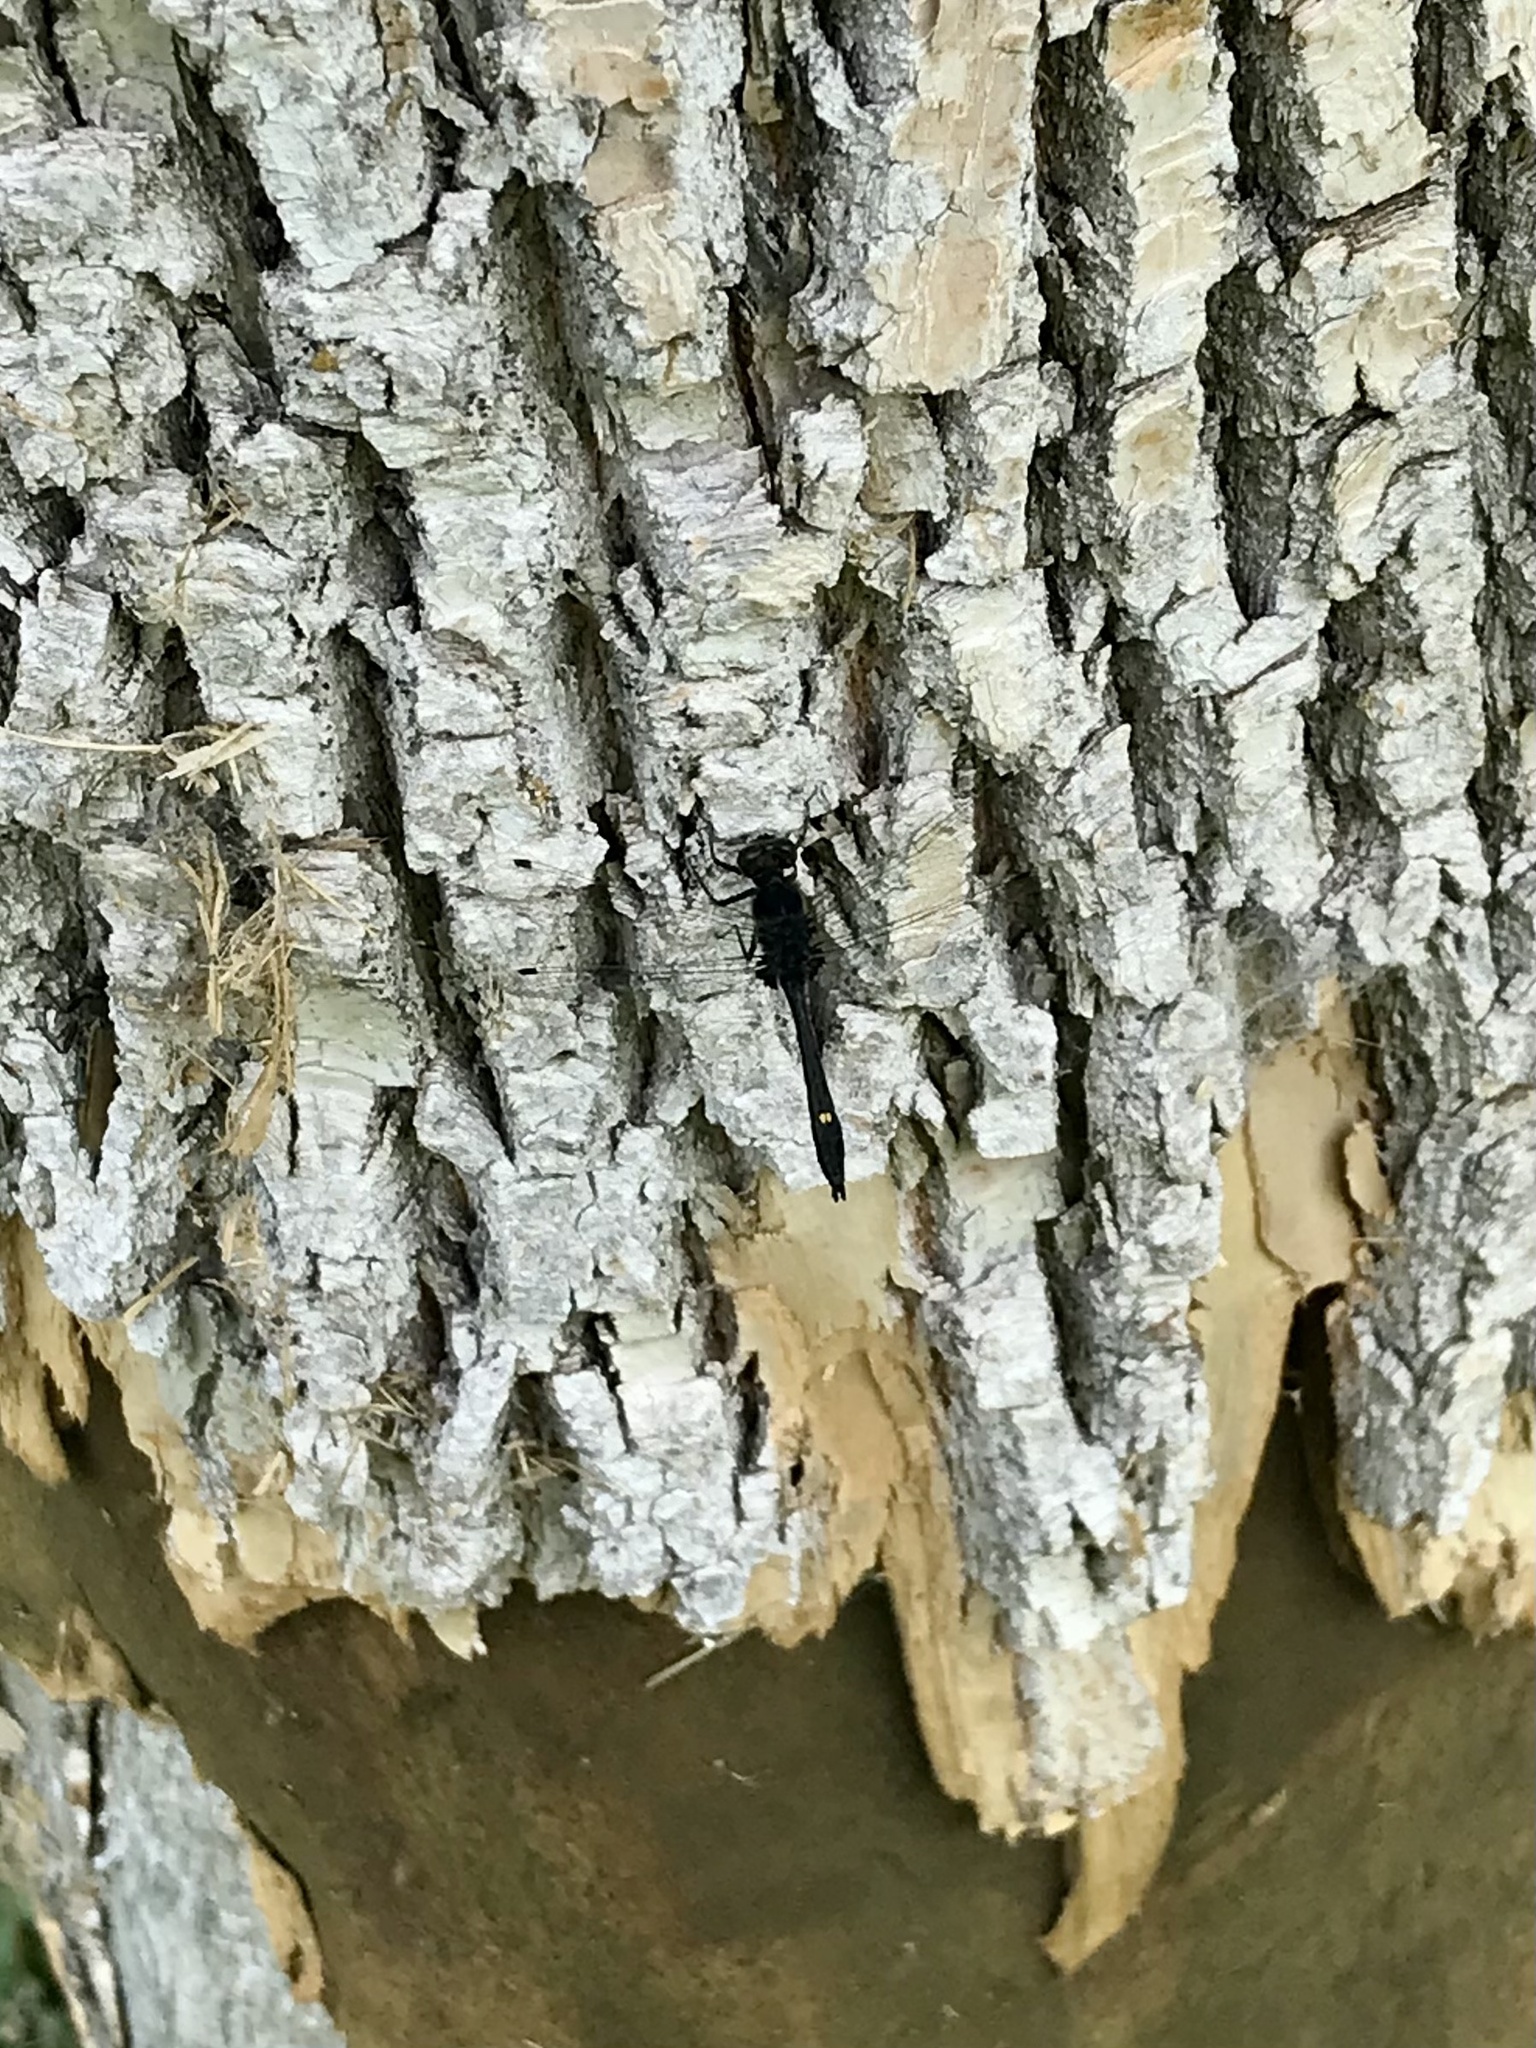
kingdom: Animalia
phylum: Arthropoda
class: Insecta
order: Odonata
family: Libellulidae
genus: Leucorrhinia
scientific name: Leucorrhinia intacta
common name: Dot-tailed whiteface
